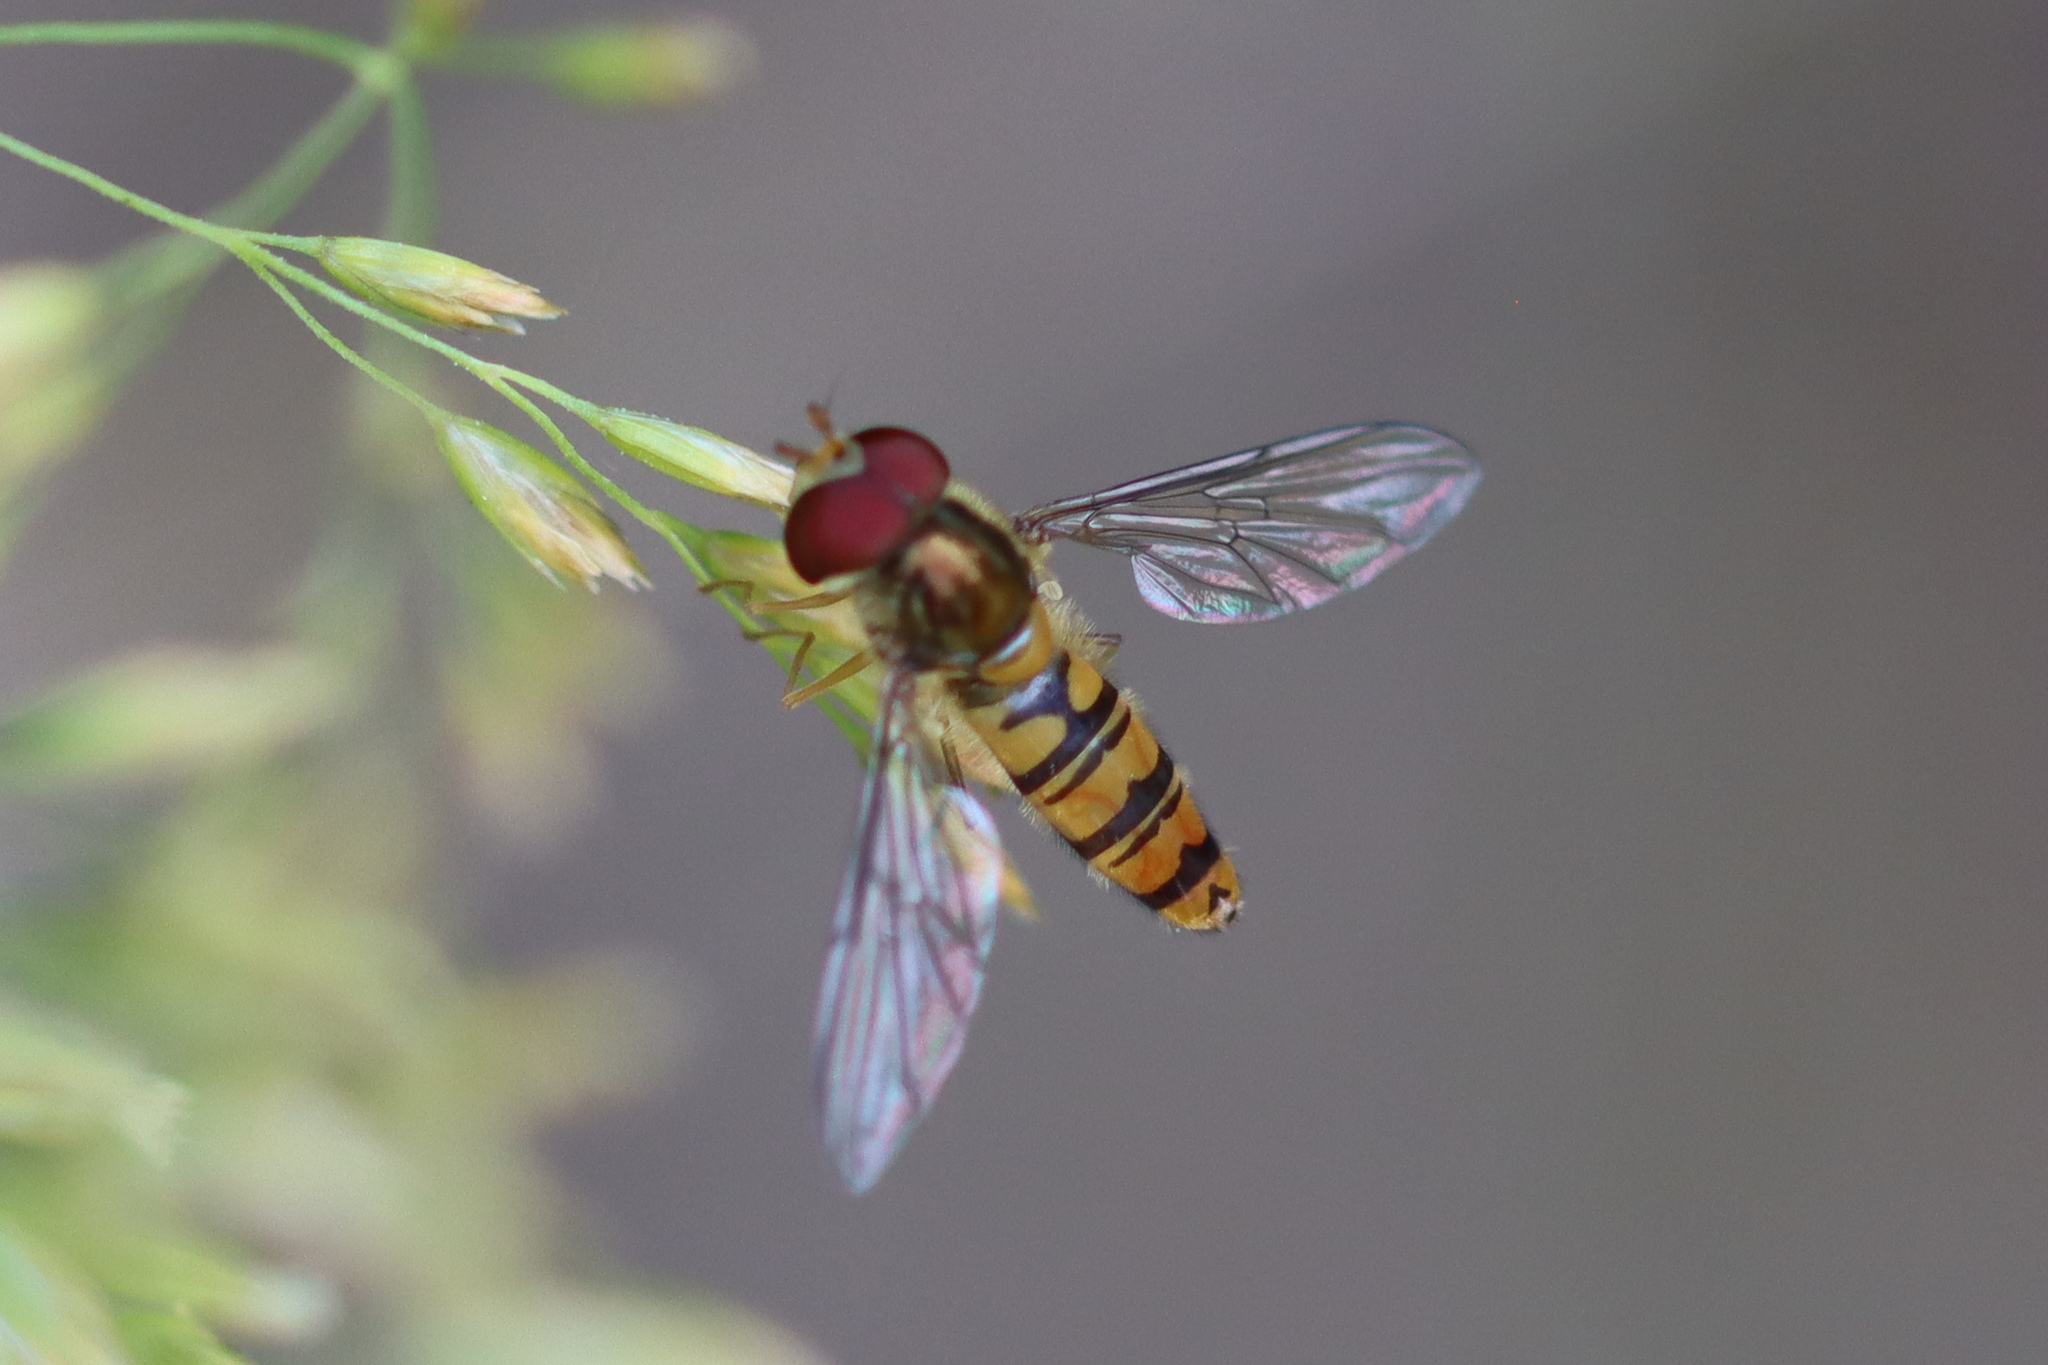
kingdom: Animalia
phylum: Arthropoda
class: Insecta
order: Diptera
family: Syrphidae
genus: Episyrphus
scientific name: Episyrphus balteatus
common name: Marmalade hoverfly
